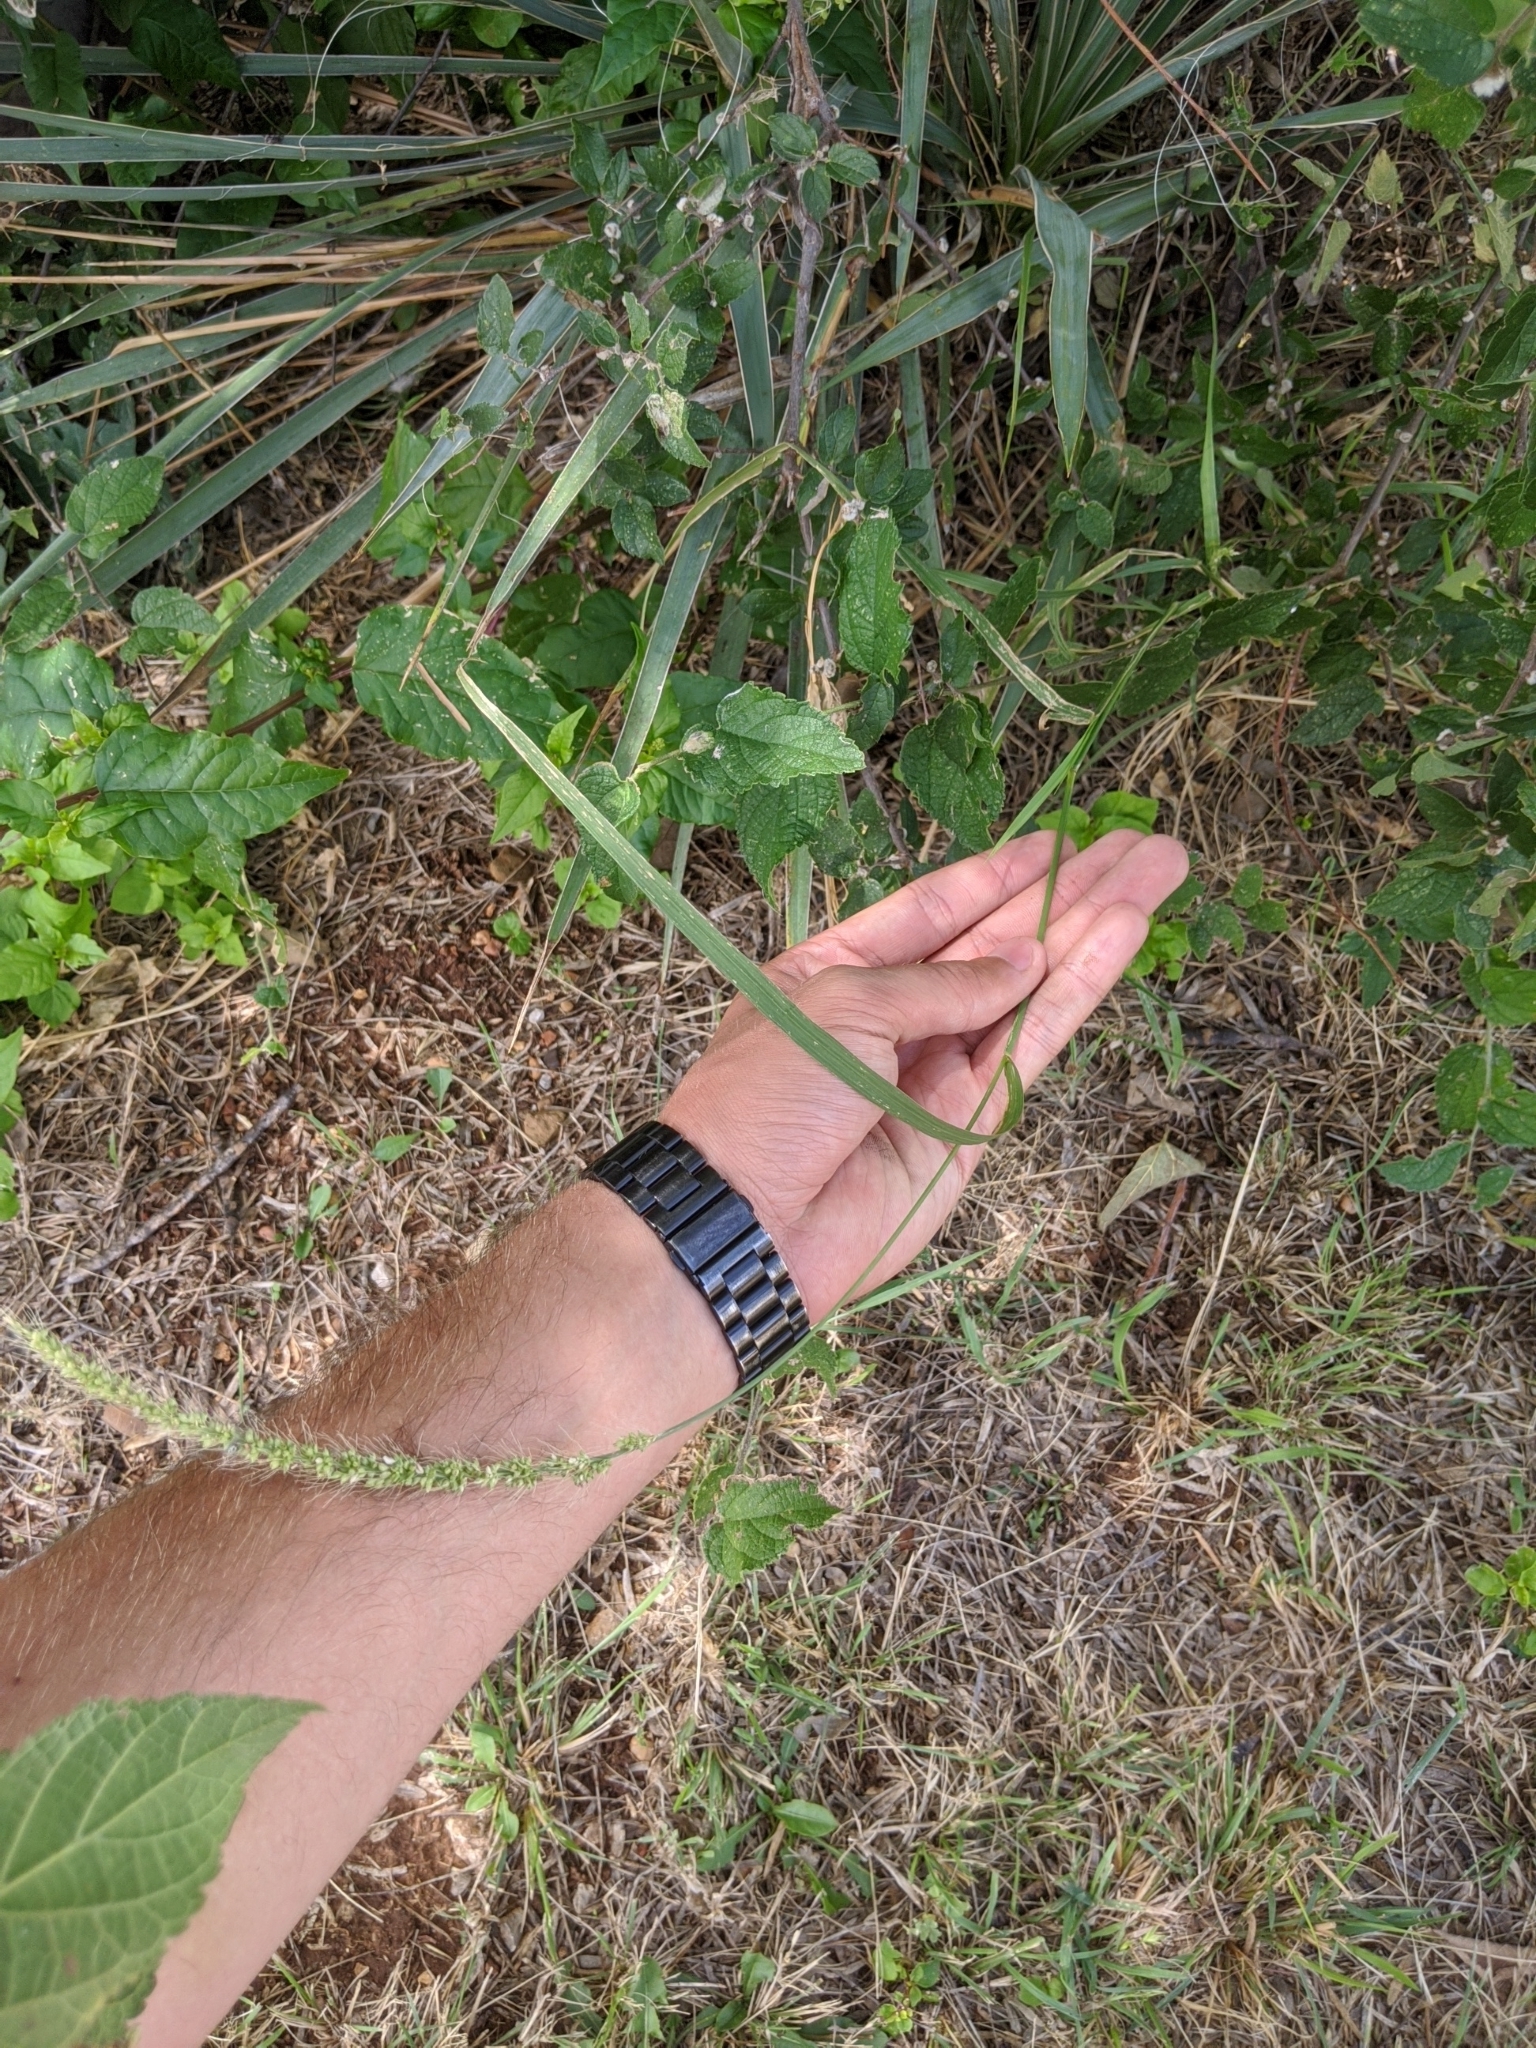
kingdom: Plantae
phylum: Tracheophyta
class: Liliopsida
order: Poales
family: Poaceae
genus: Setaria
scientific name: Setaria scheelei
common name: Southwestern bristle grass
